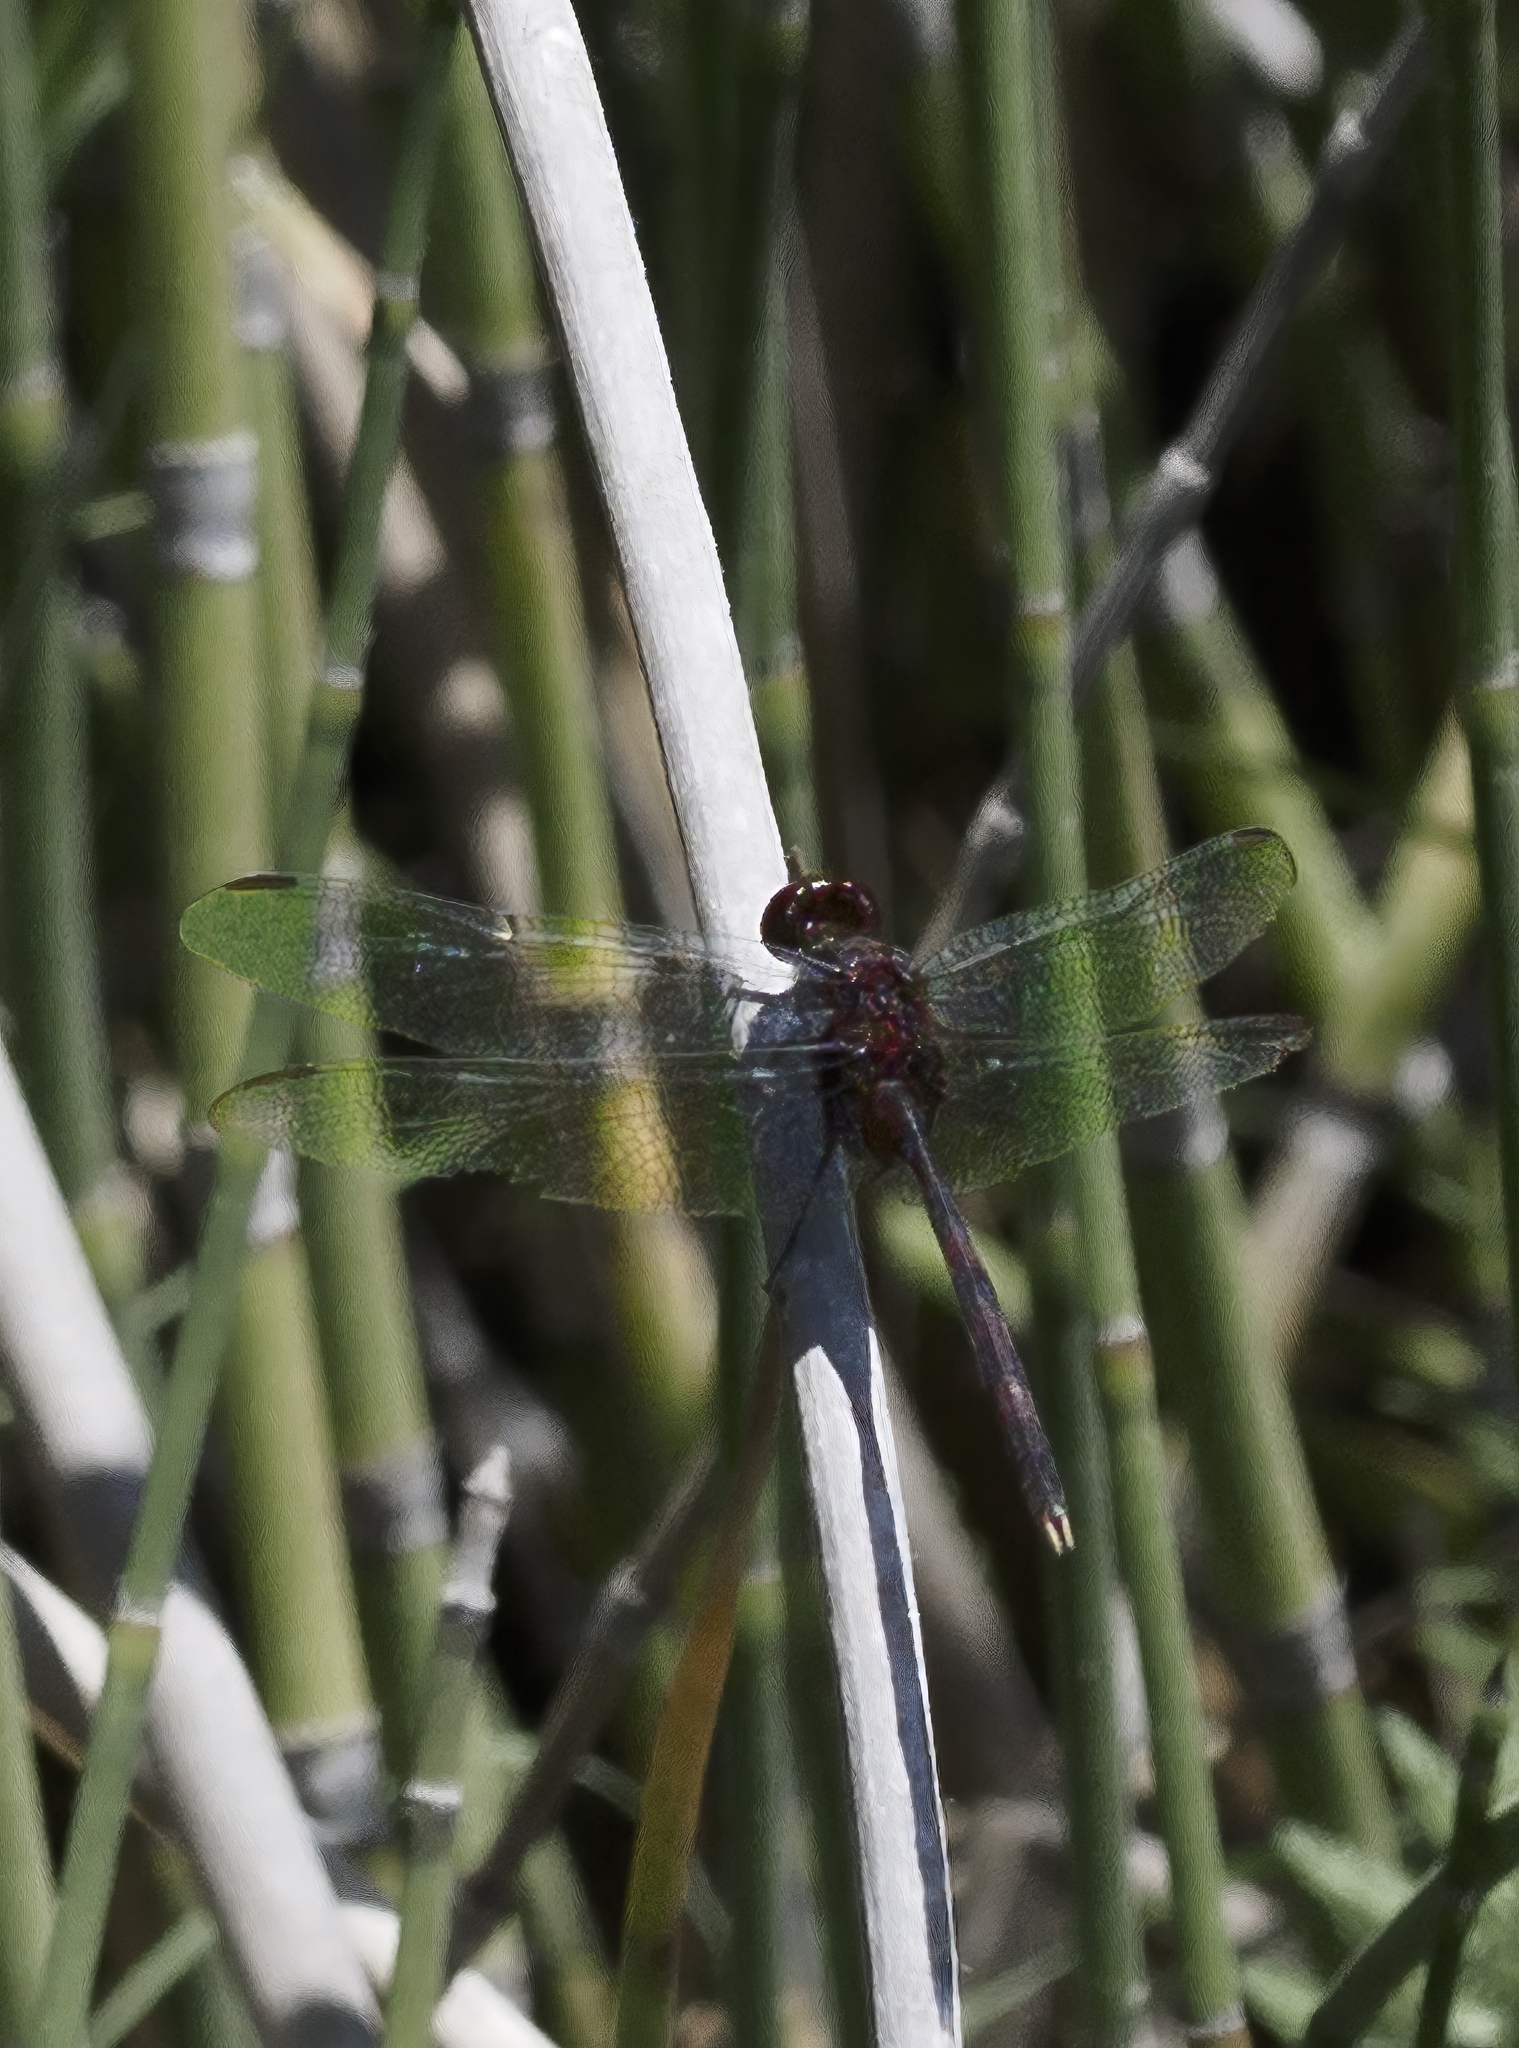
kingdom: Animalia
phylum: Arthropoda
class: Insecta
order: Odonata
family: Libellulidae
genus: Erythemis
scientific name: Erythemis plebeja
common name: Pin-tailed pondhawk
